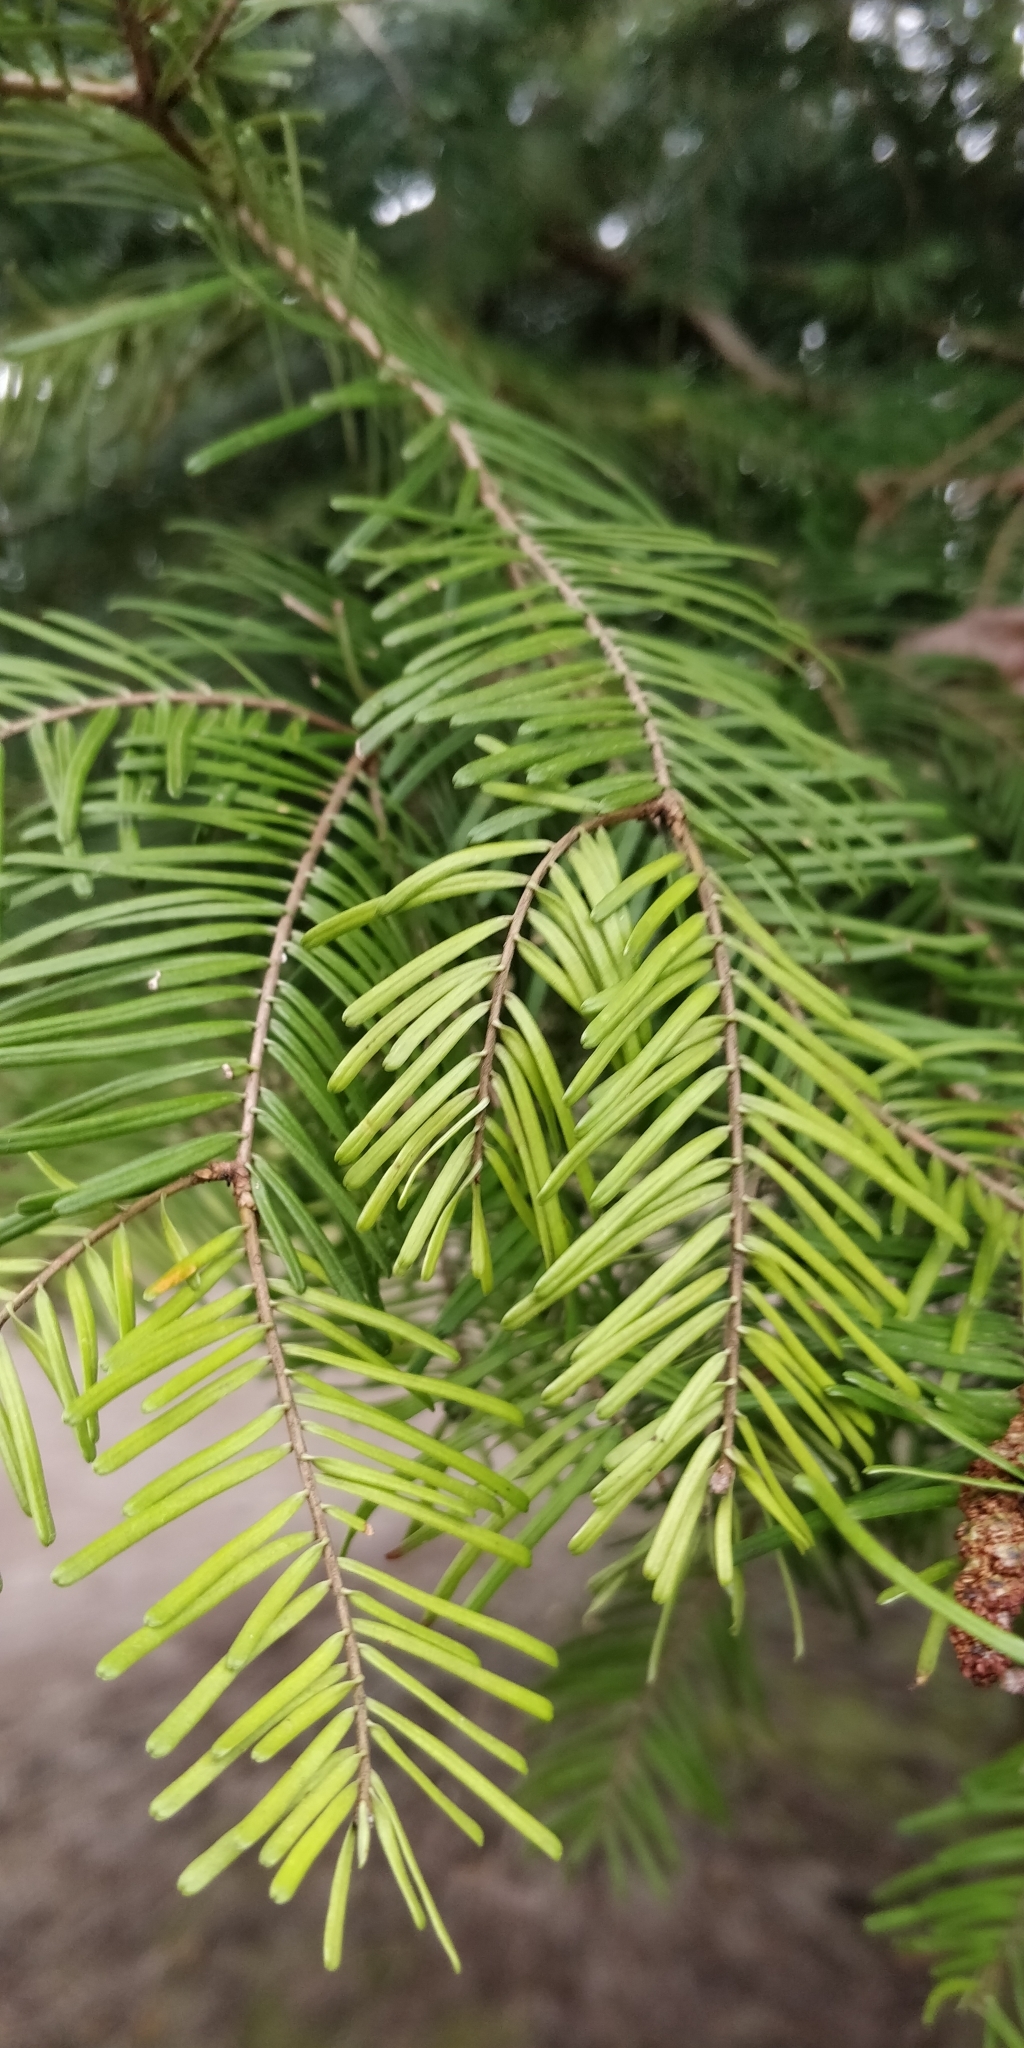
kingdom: Plantae
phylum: Tracheophyta
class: Pinopsida
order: Pinales
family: Pinaceae
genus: Abies
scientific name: Abies grandis
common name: Giant fir
